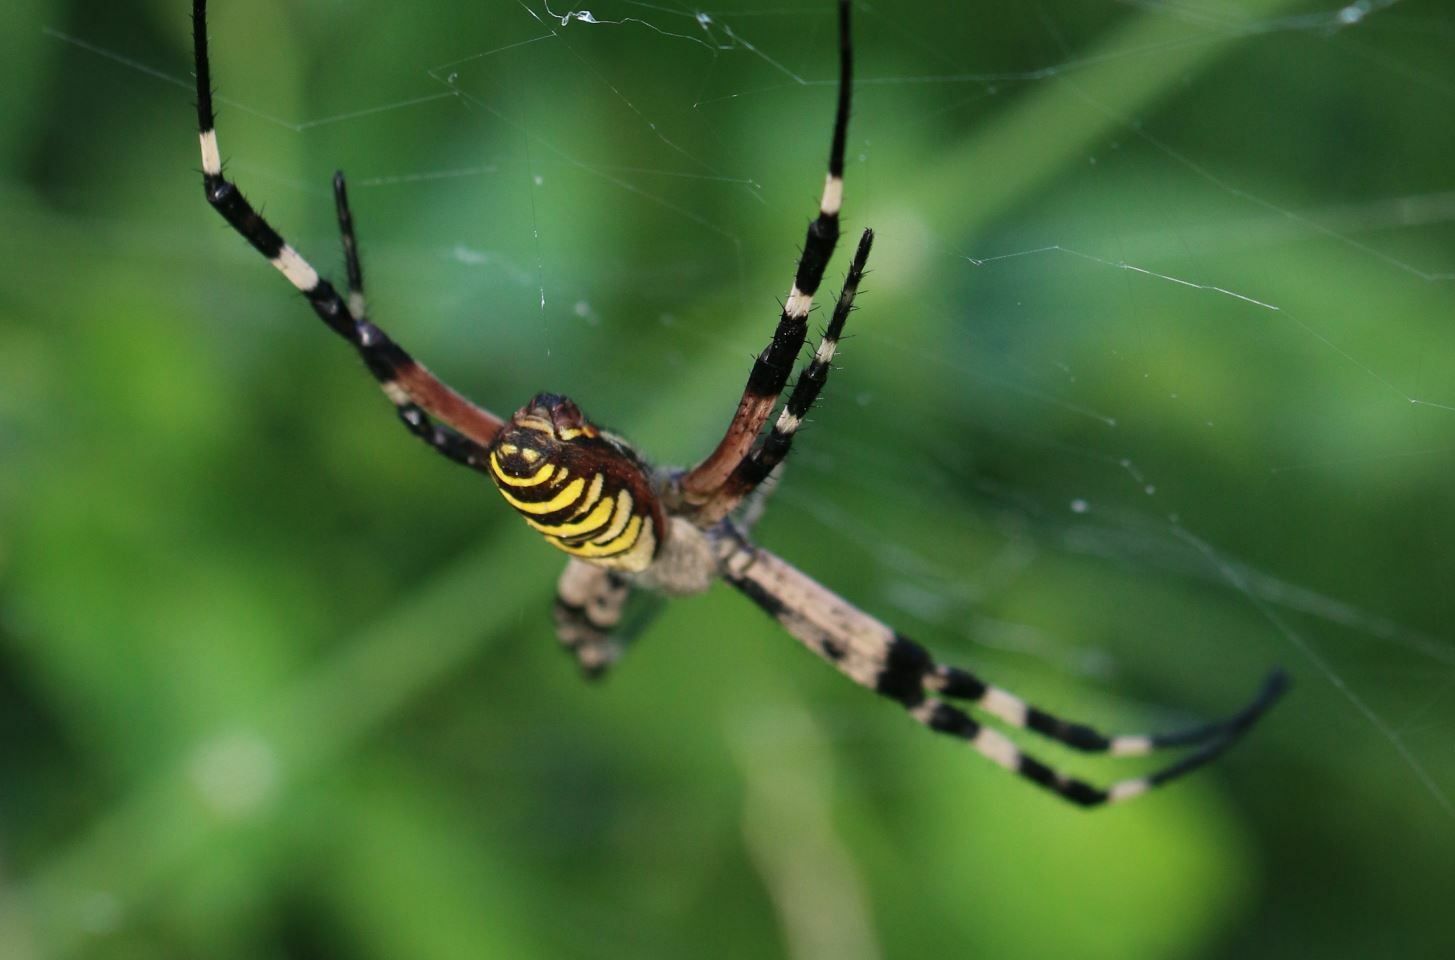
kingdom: Animalia
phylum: Arthropoda
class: Arachnida
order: Araneae
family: Araneidae
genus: Argiope
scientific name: Argiope bruennichi
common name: Wasp spider
